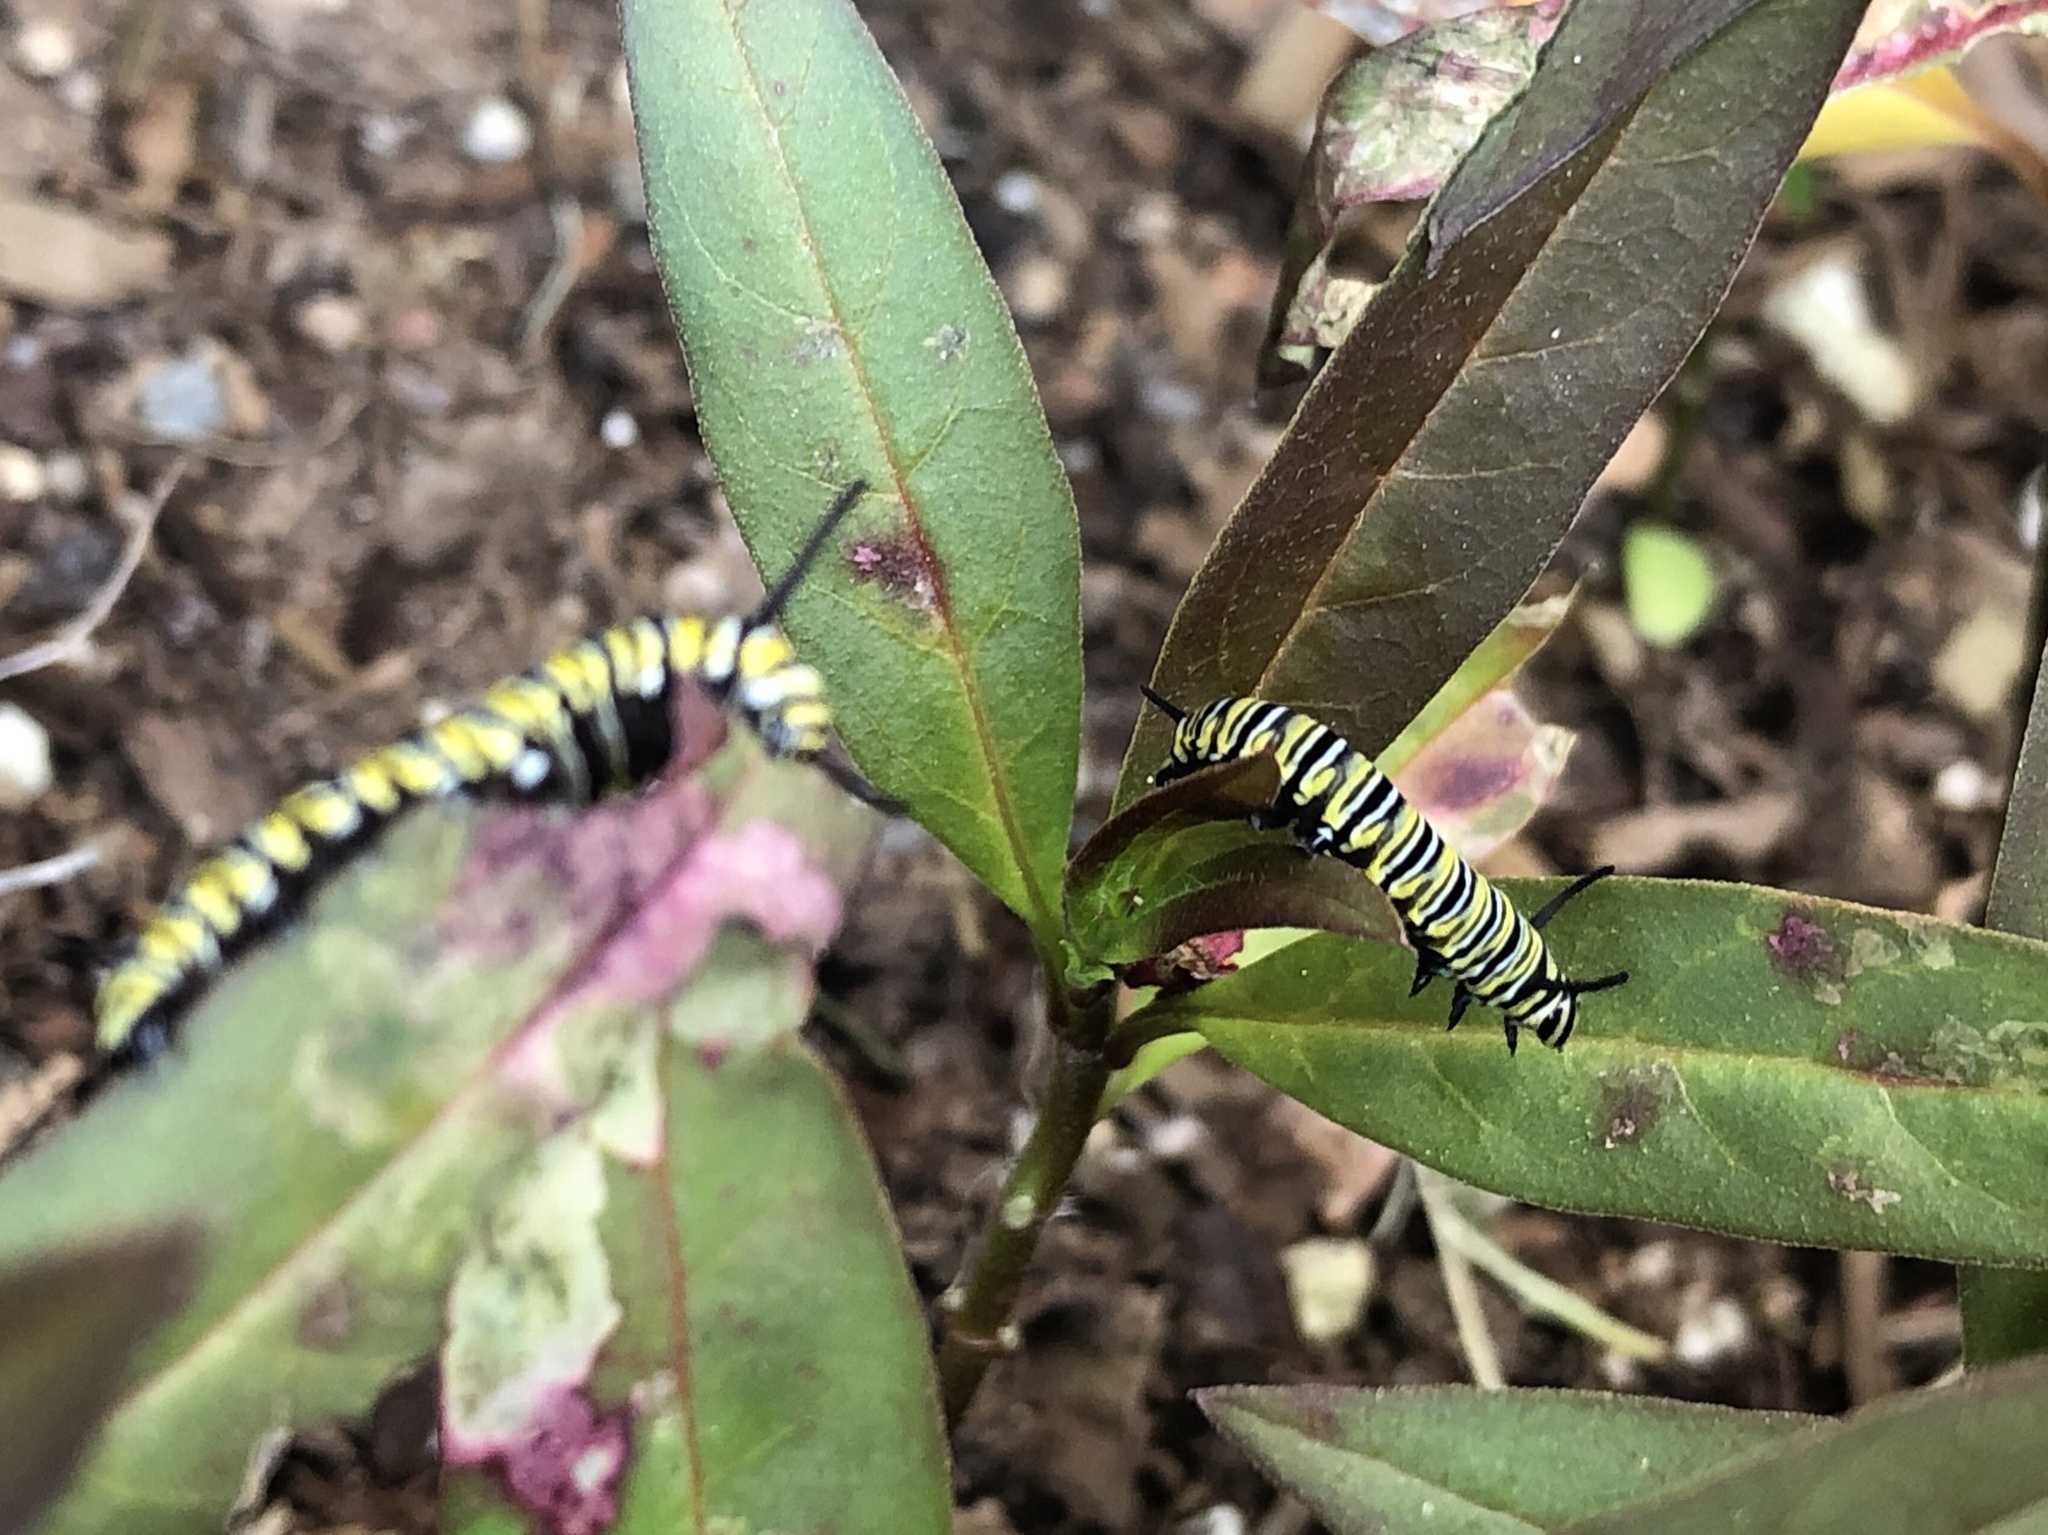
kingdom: Animalia
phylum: Arthropoda
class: Insecta
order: Lepidoptera
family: Nymphalidae
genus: Danaus
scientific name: Danaus plexippus
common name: Monarch
